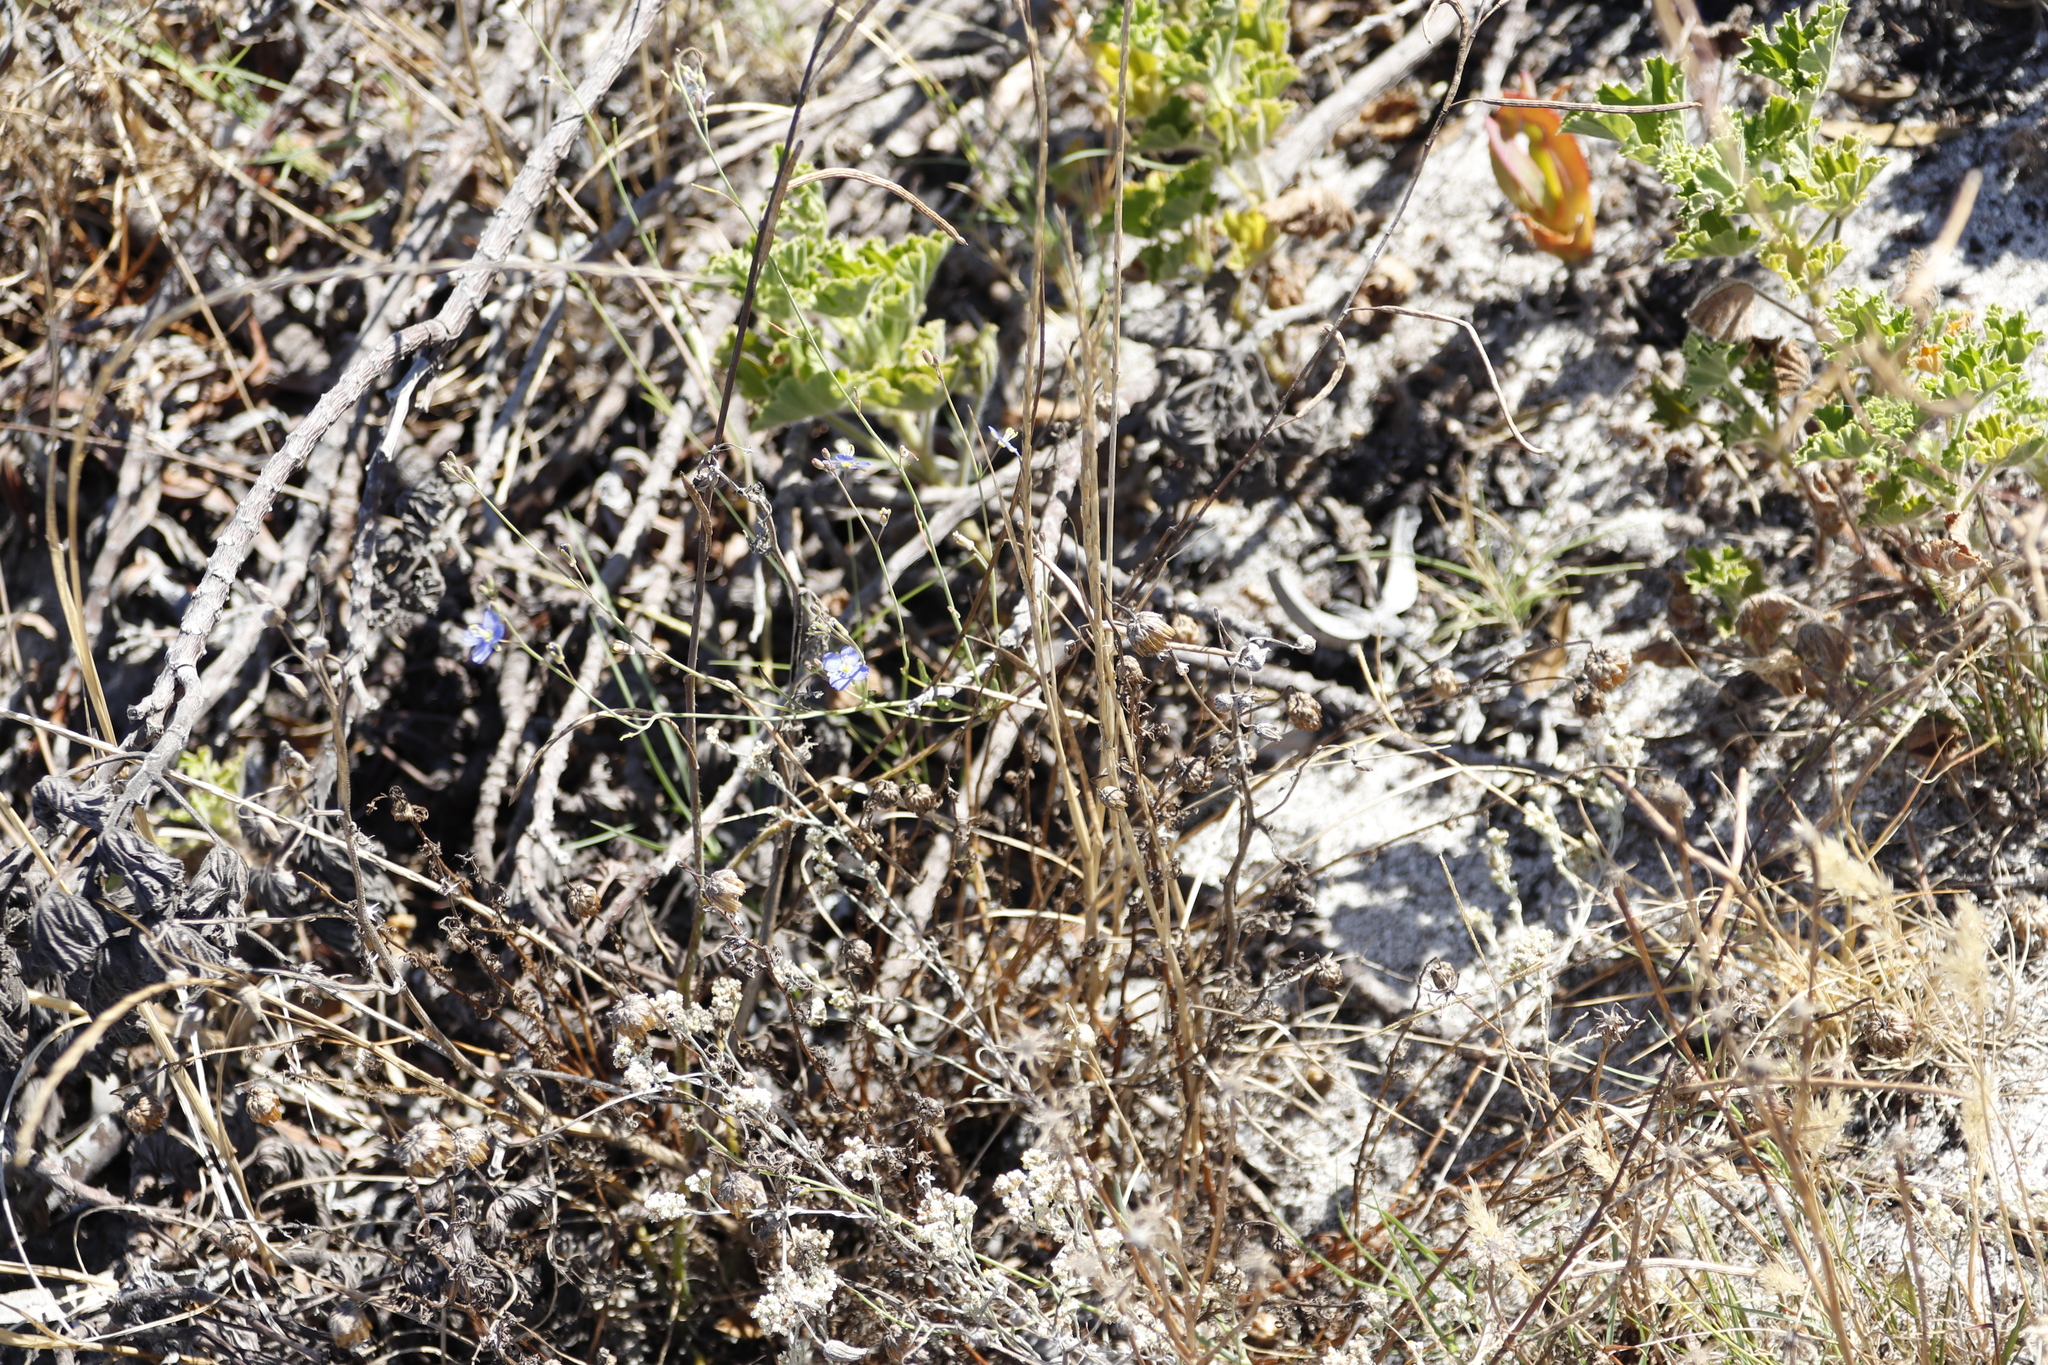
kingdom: Plantae
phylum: Tracheophyta
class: Magnoliopsida
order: Brassicales
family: Brassicaceae
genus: Heliophila
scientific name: Heliophila africana
